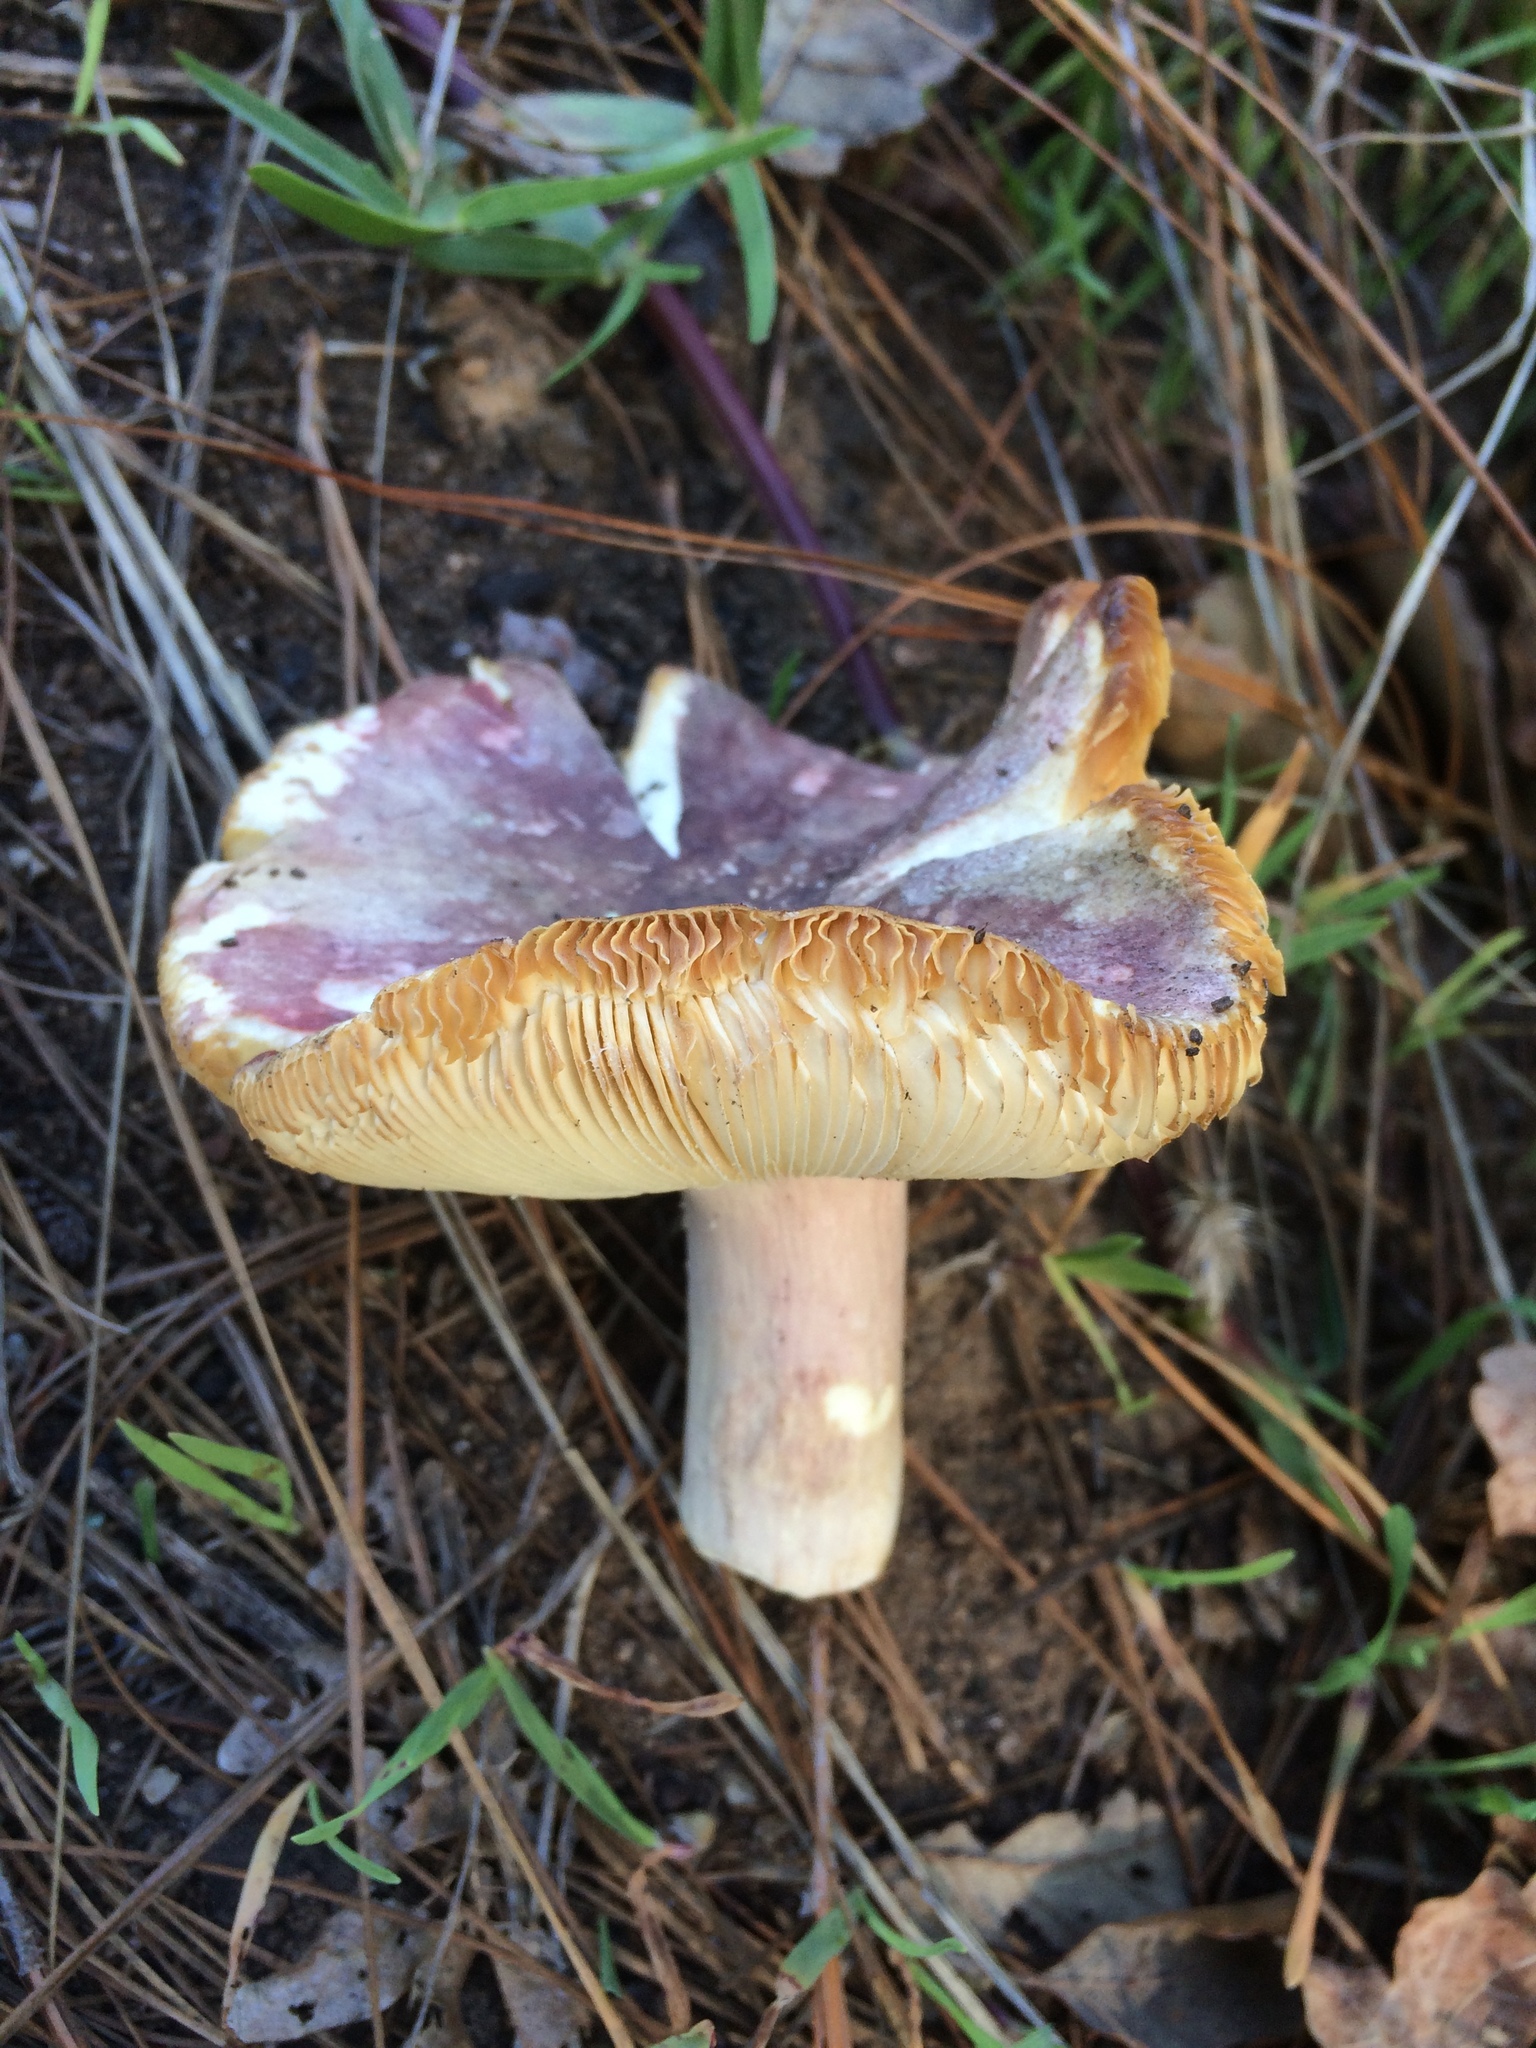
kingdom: Fungi
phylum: Basidiomycota
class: Agaricomycetes
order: Russulales
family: Russulaceae
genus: Russula
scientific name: Russula sardonia
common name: Primrose brittlegill
